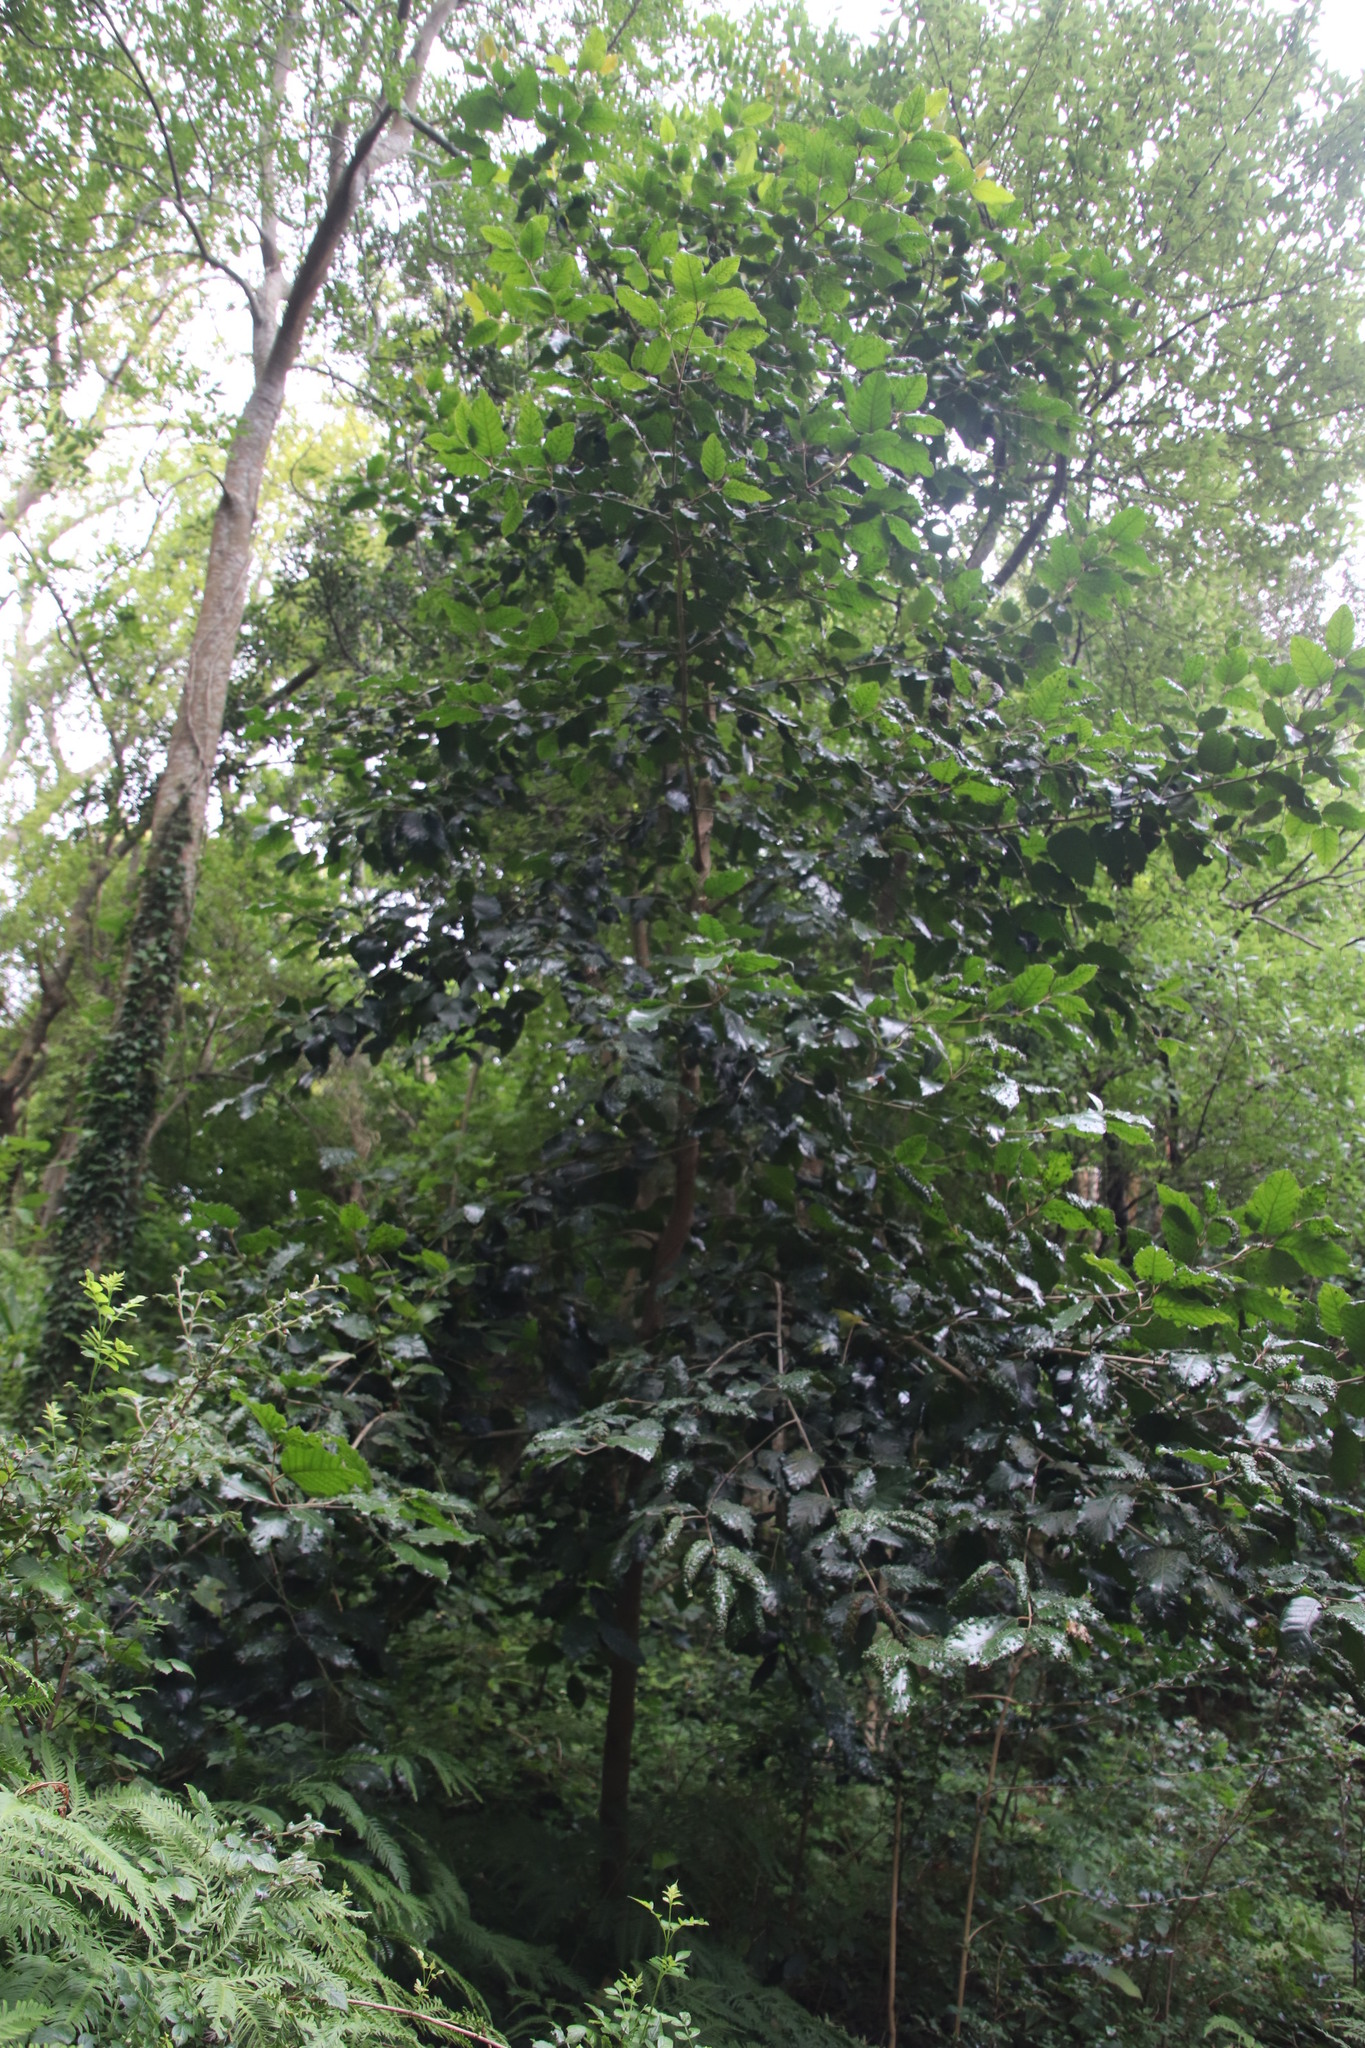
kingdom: Plantae
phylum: Tracheophyta
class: Magnoliopsida
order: Cornales
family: Curtisiaceae
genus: Curtisia
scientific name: Curtisia dentata
